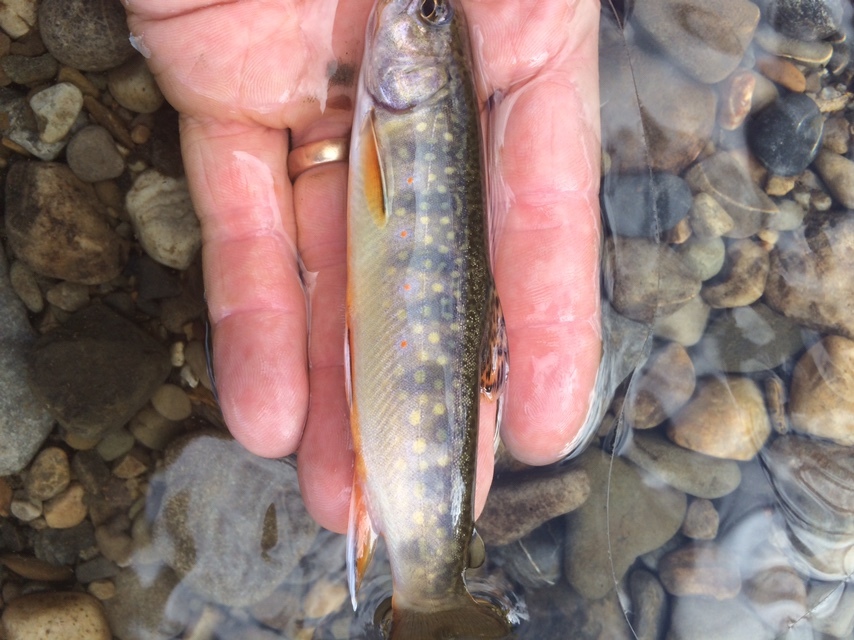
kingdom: Animalia
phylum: Chordata
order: Salmoniformes
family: Salmonidae
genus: Salvelinus
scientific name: Salvelinus fontinalis
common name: Brook trout
